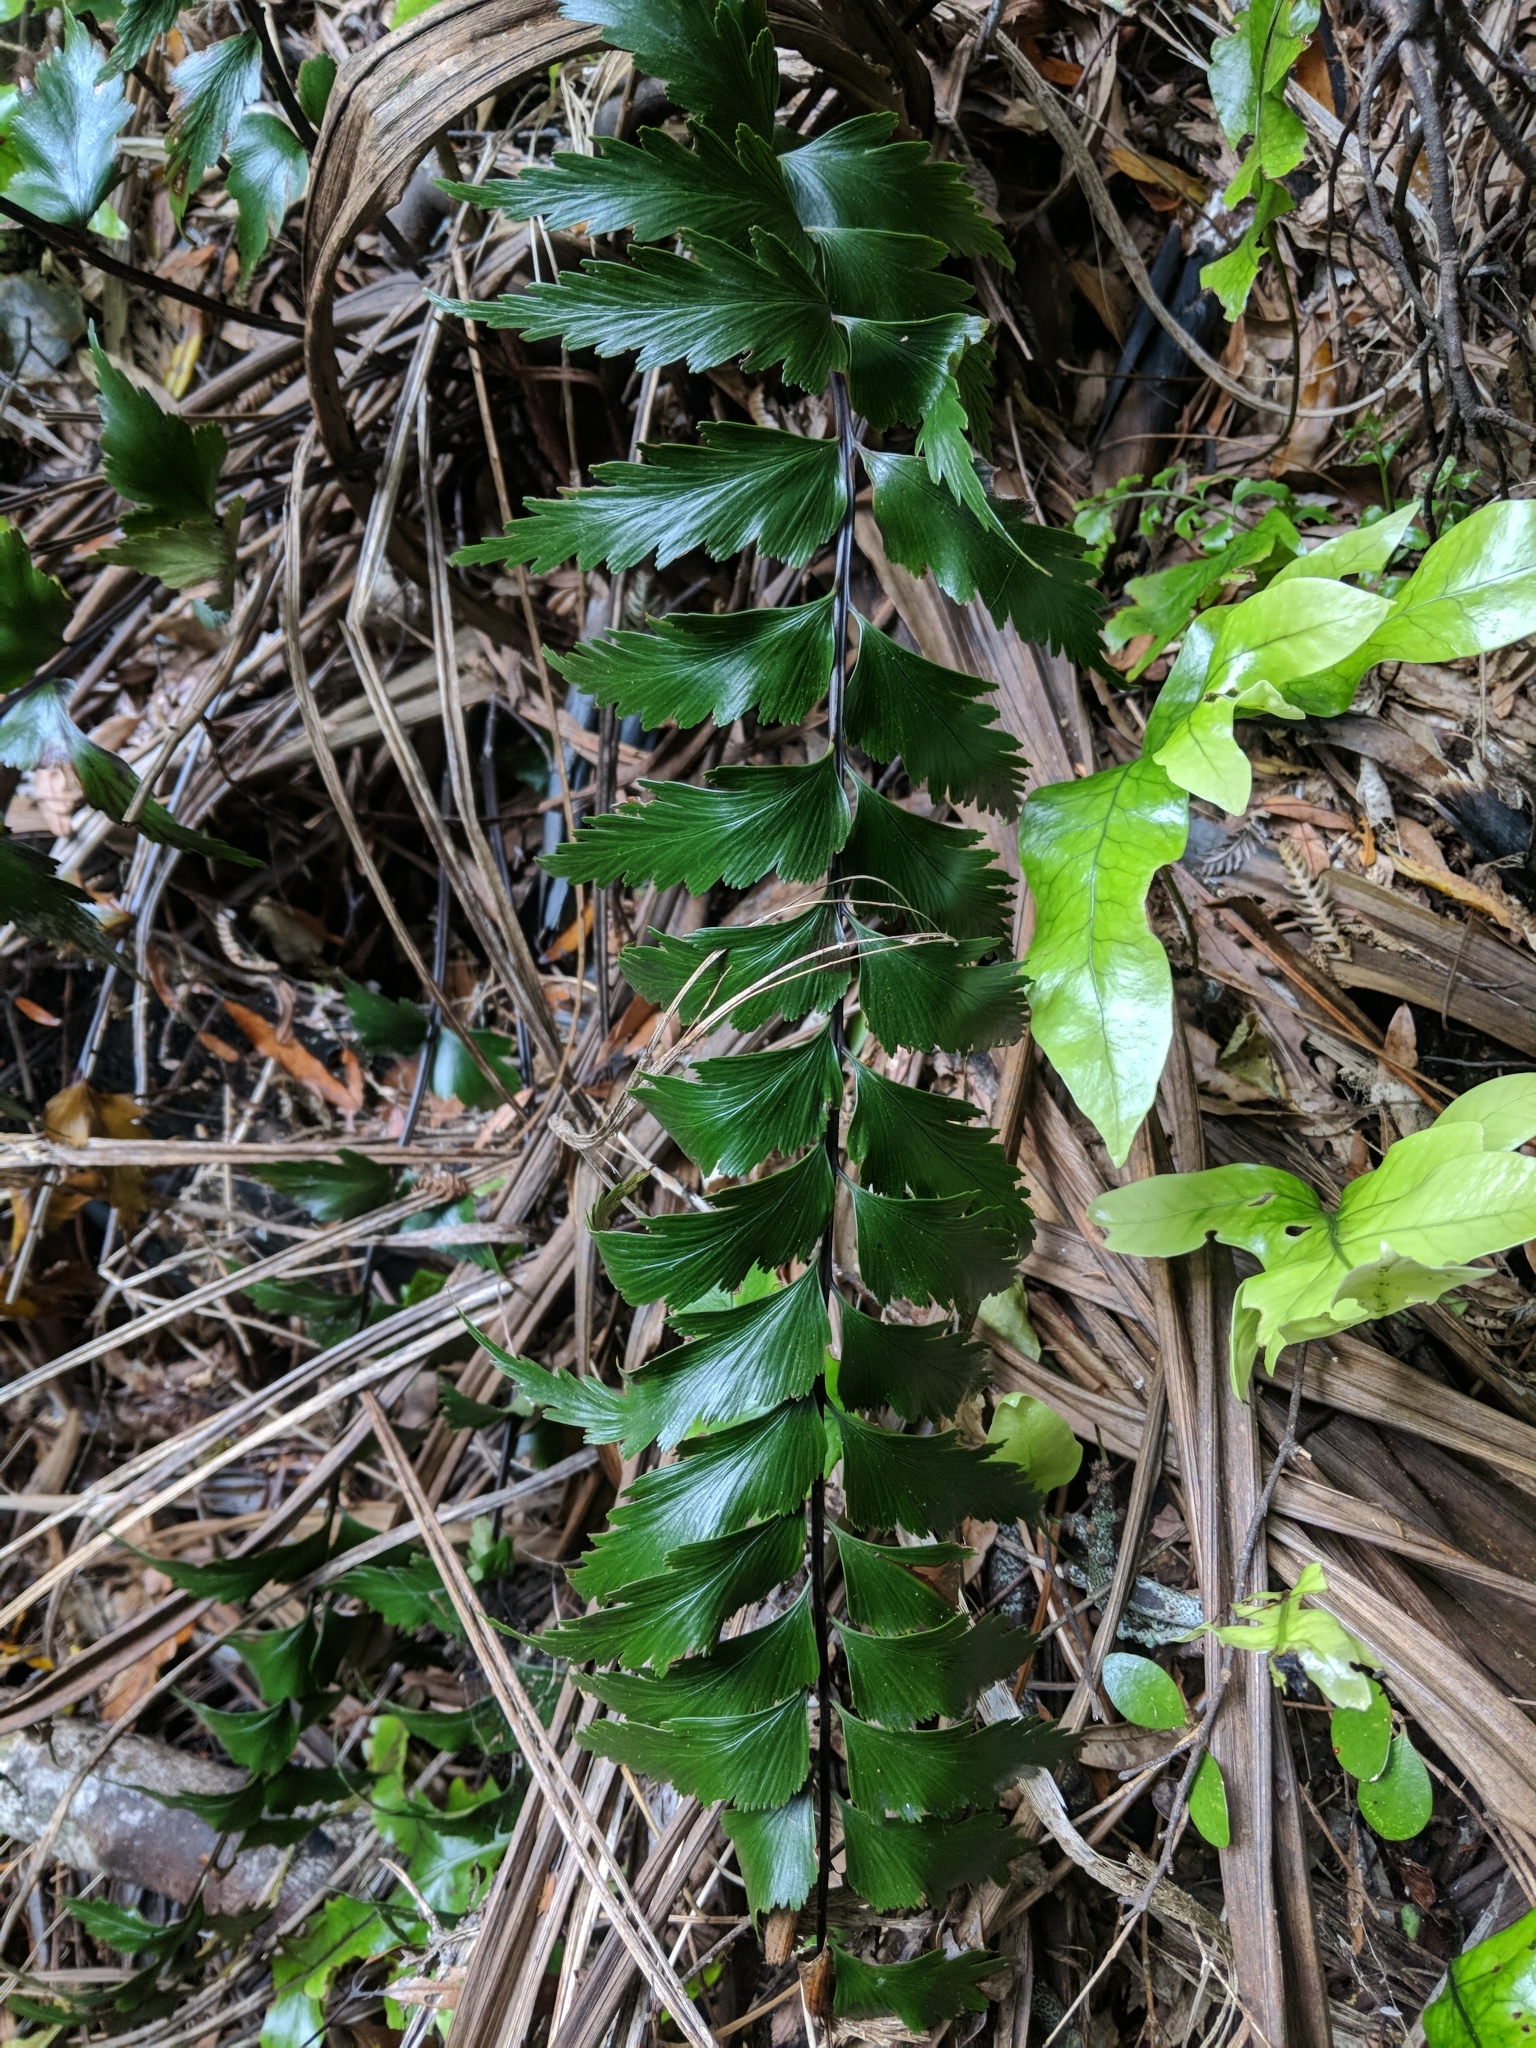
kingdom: Plantae
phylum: Tracheophyta
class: Polypodiopsida
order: Polypodiales
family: Aspleniaceae
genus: Asplenium
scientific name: Asplenium polyodon
